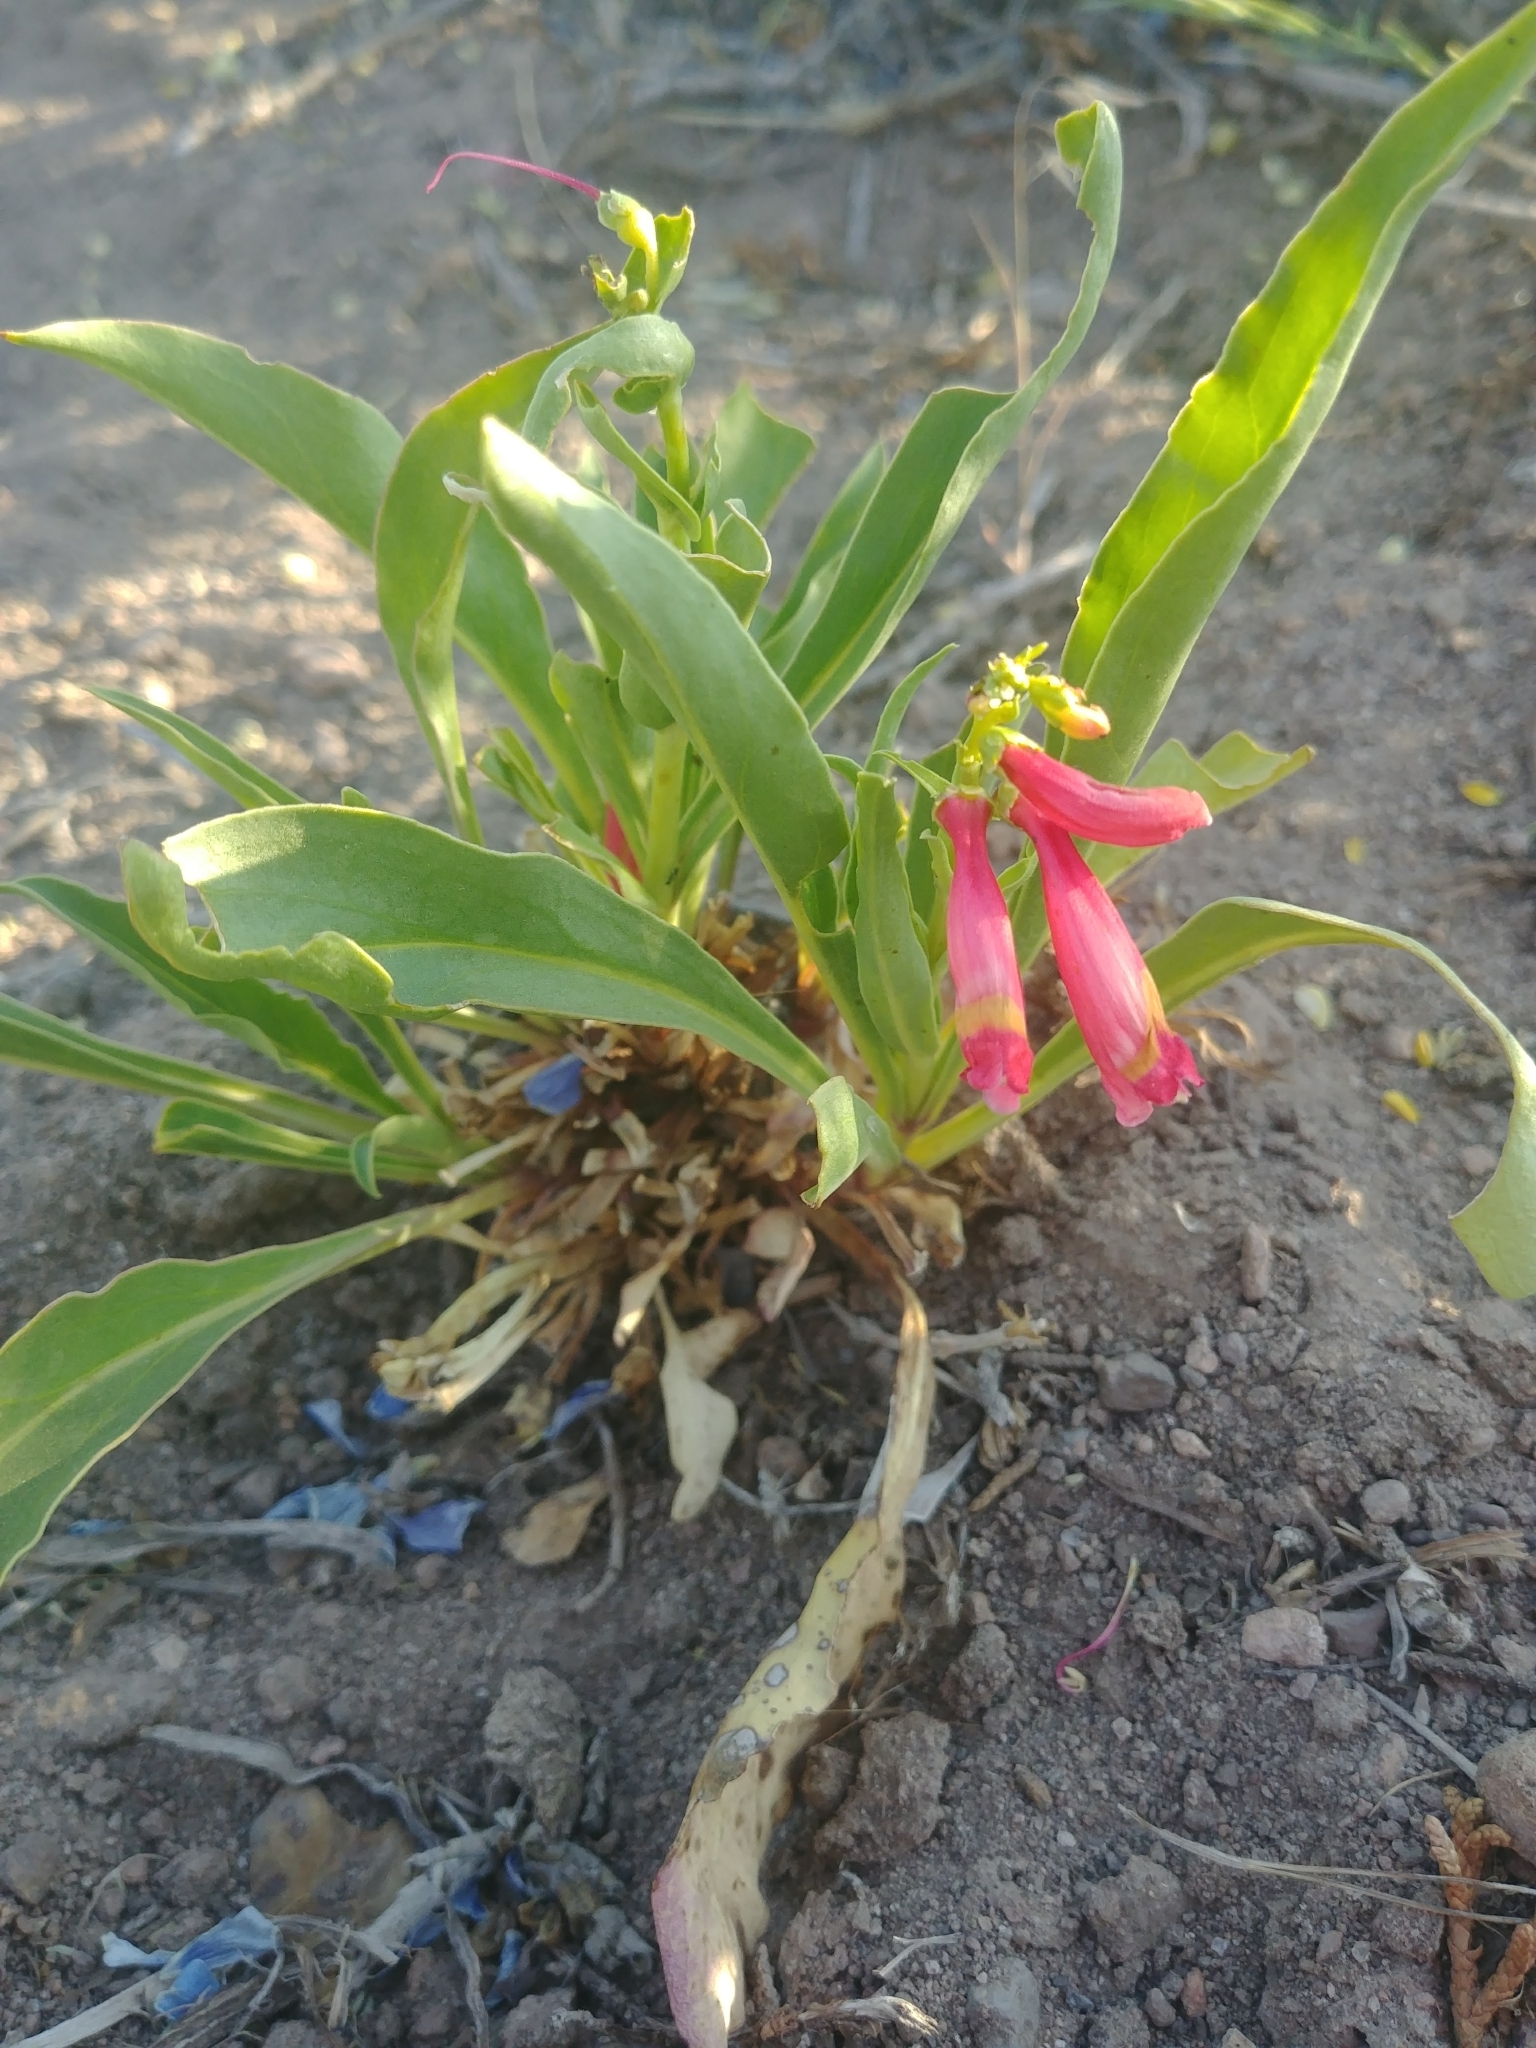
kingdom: Plantae
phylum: Tracheophyta
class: Magnoliopsida
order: Lamiales
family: Plantaginaceae
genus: Penstemon
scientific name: Penstemon eatonii
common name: Eaton's penstemon
